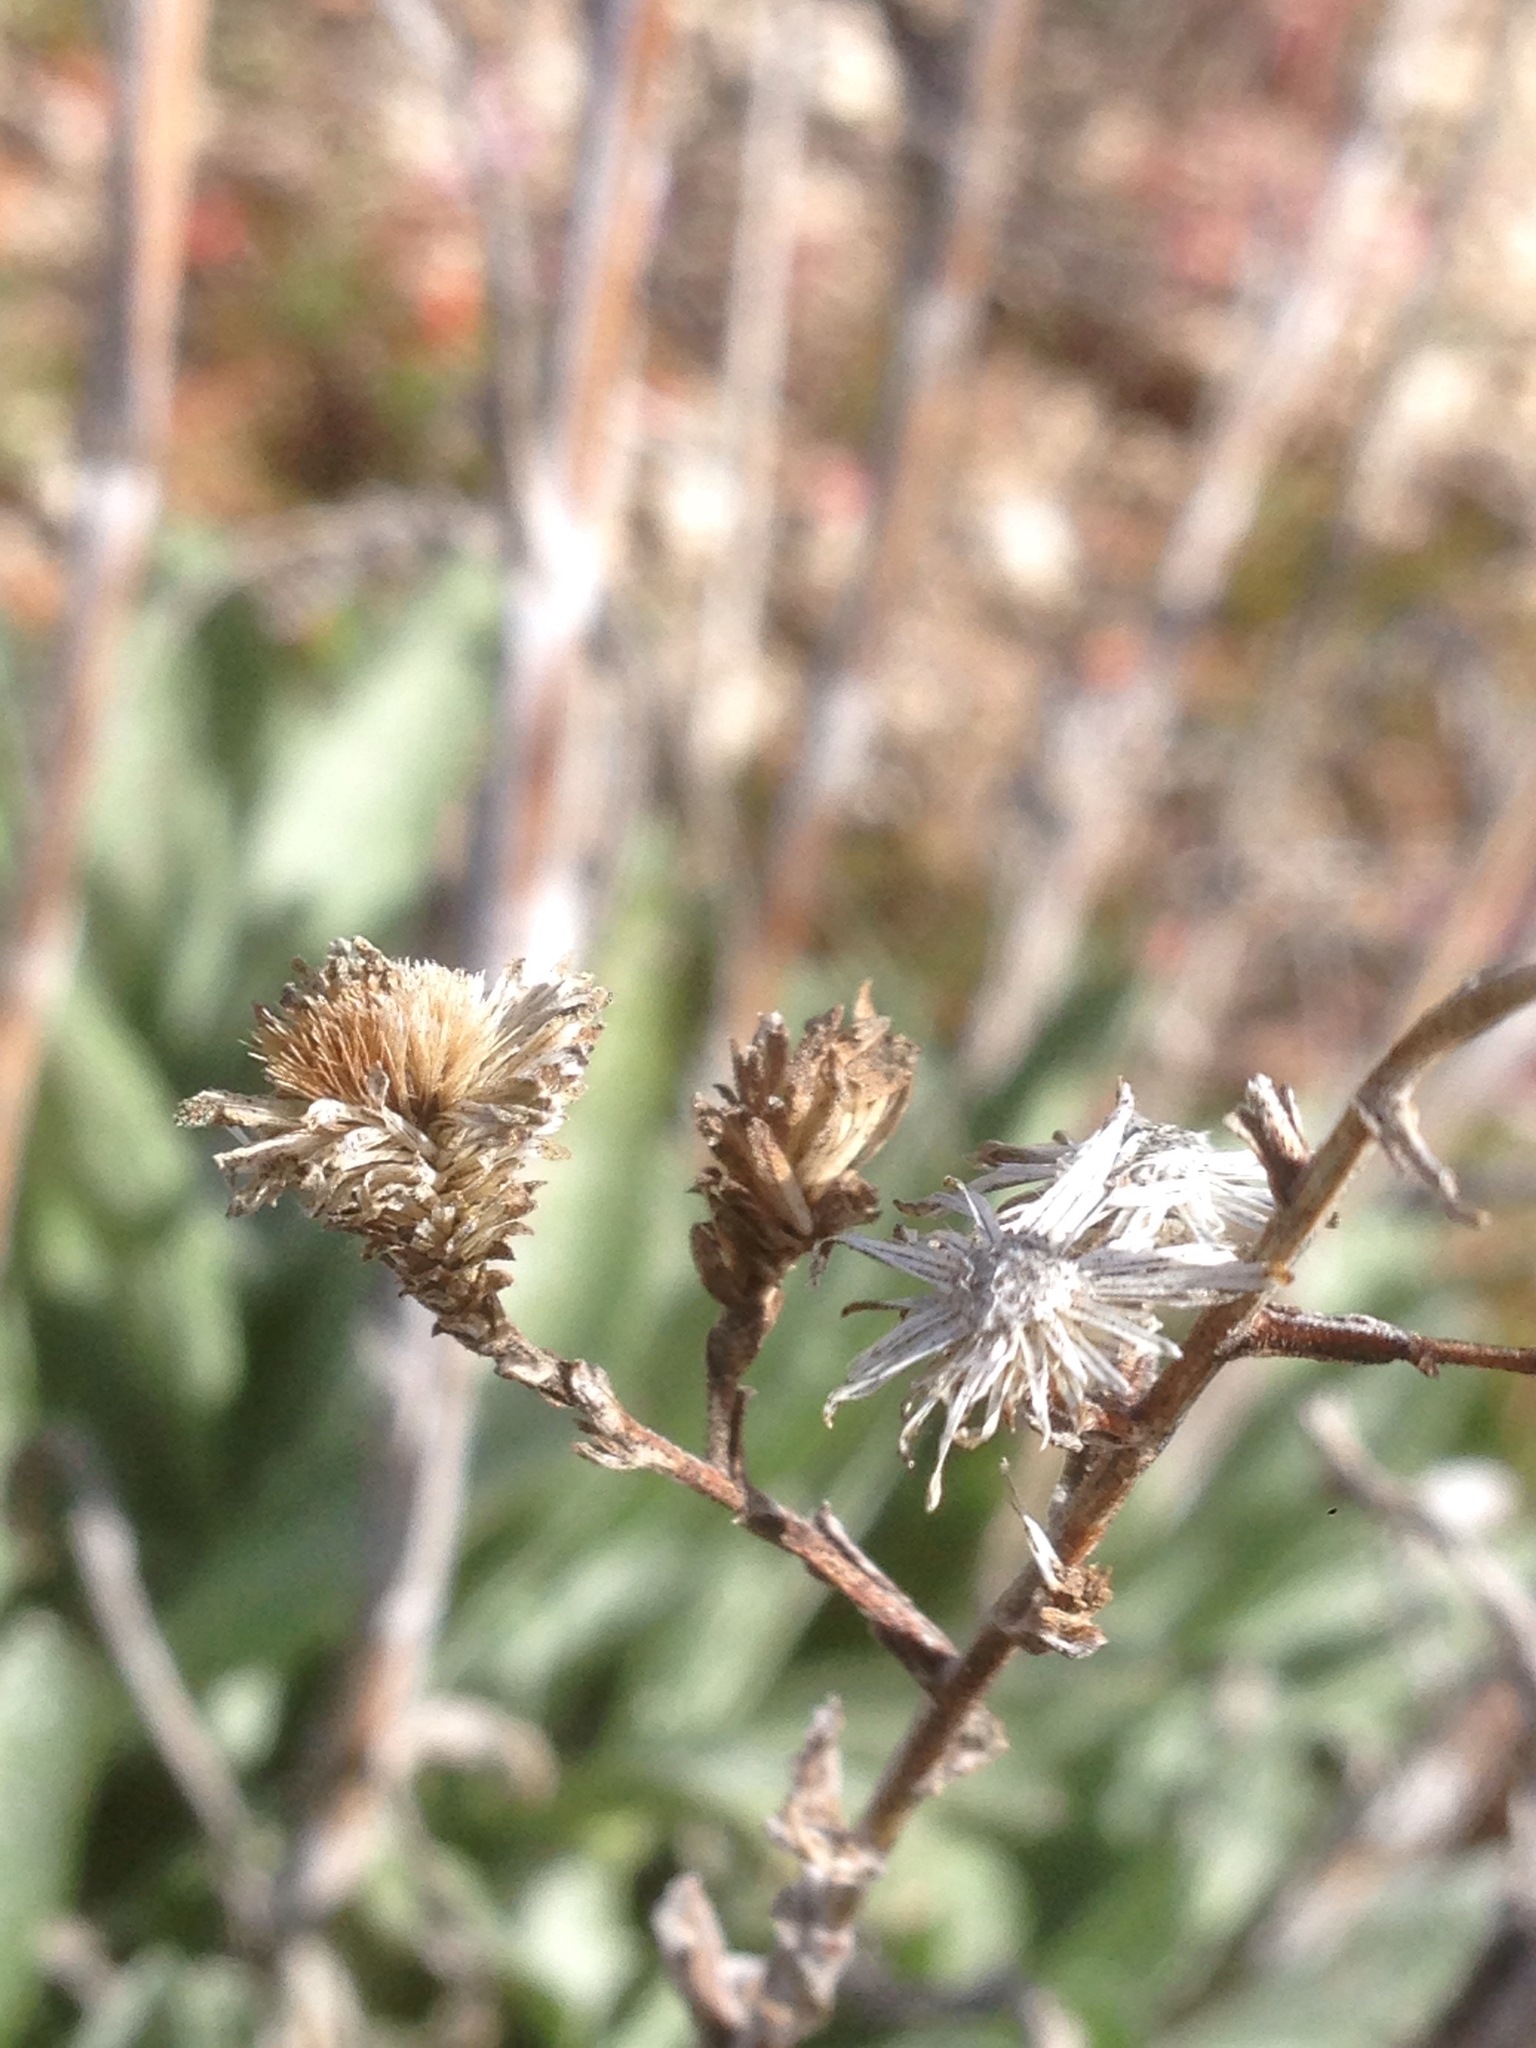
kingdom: Plantae
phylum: Tracheophyta
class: Magnoliopsida
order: Asterales
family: Asteraceae
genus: Corethrogyne
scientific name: Corethrogyne filaginifolia
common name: Sand-aster
